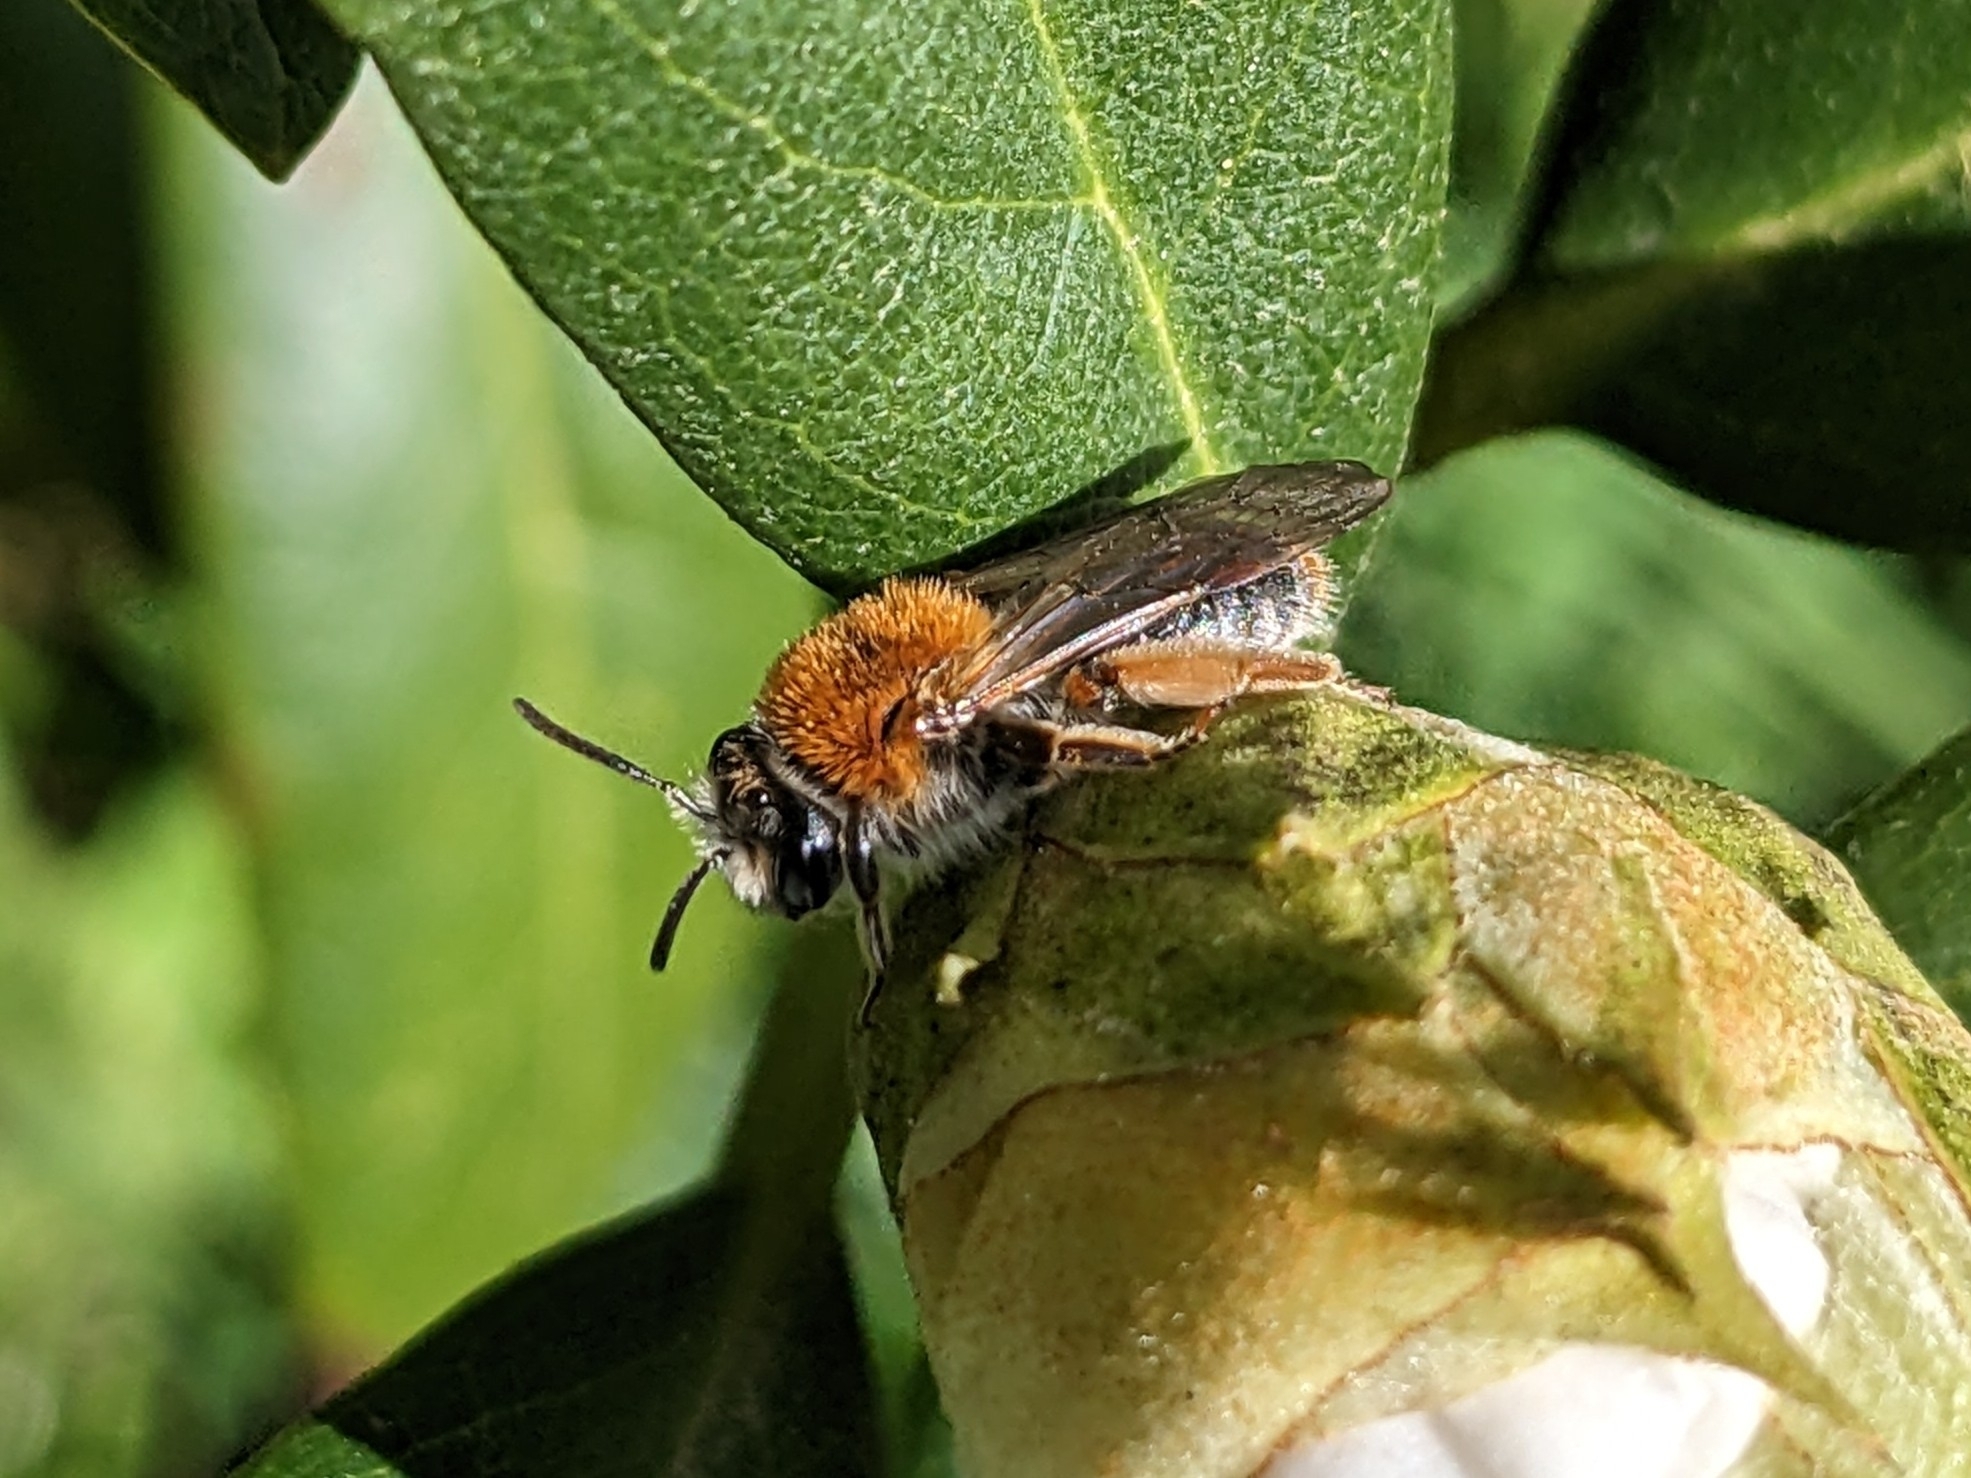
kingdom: Animalia
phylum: Arthropoda
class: Insecta
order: Hymenoptera
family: Andrenidae
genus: Andrena
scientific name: Andrena haemorrhoa
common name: Early mining bee
